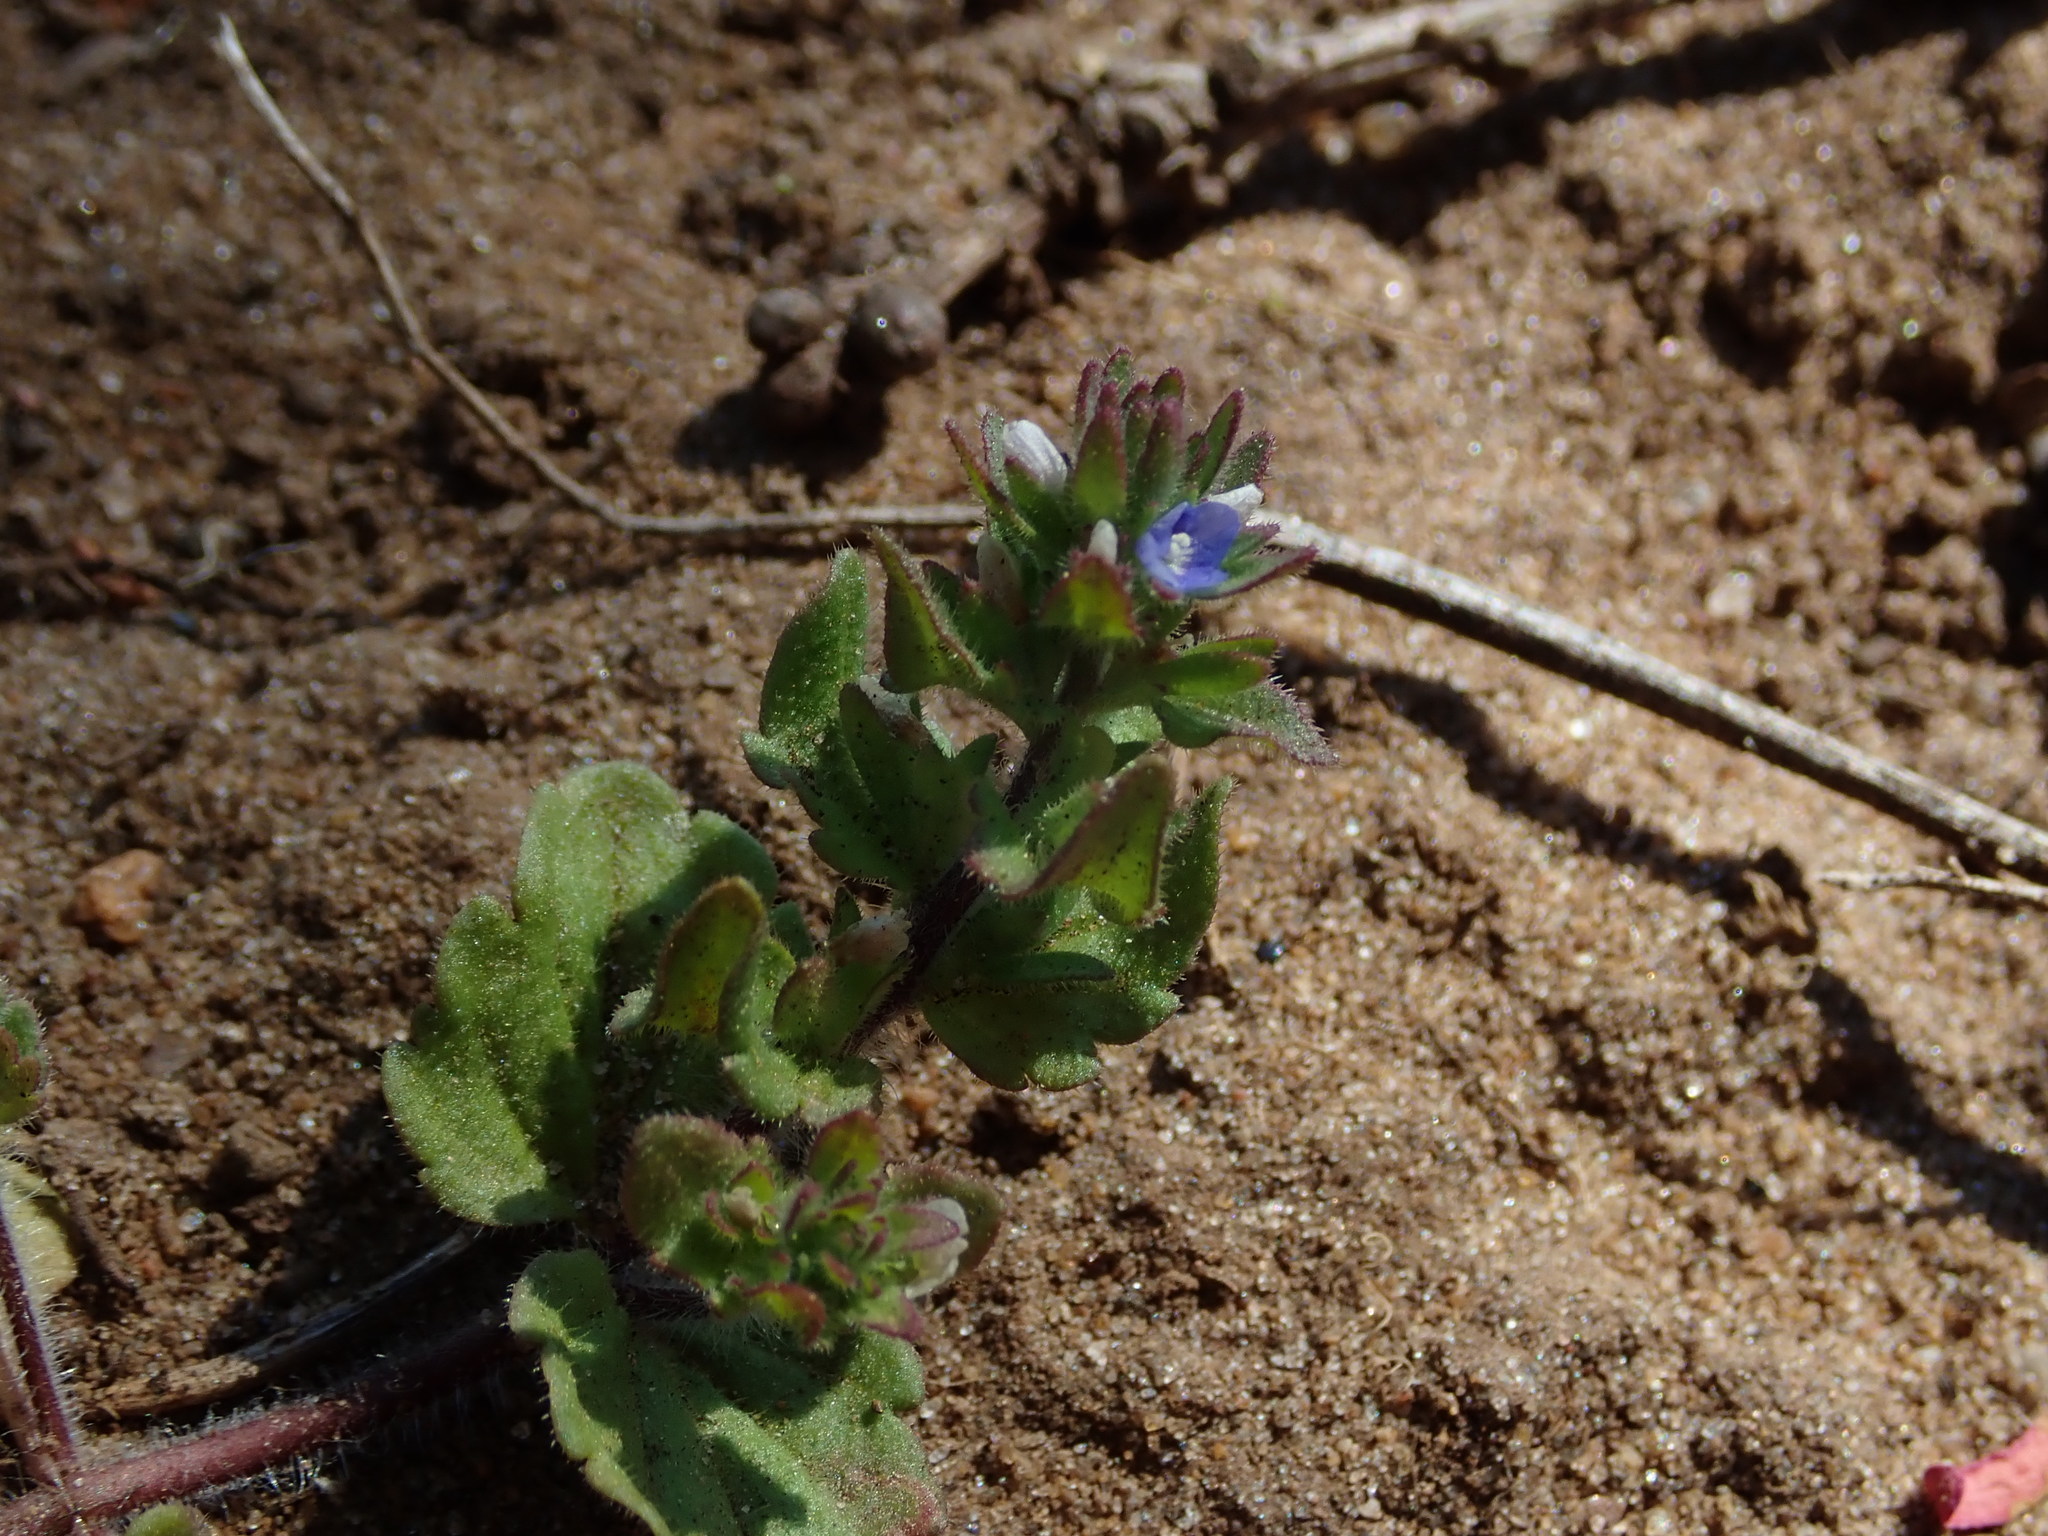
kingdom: Plantae
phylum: Tracheophyta
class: Magnoliopsida
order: Lamiales
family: Plantaginaceae
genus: Veronica
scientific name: Veronica arvensis
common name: Corn speedwell
